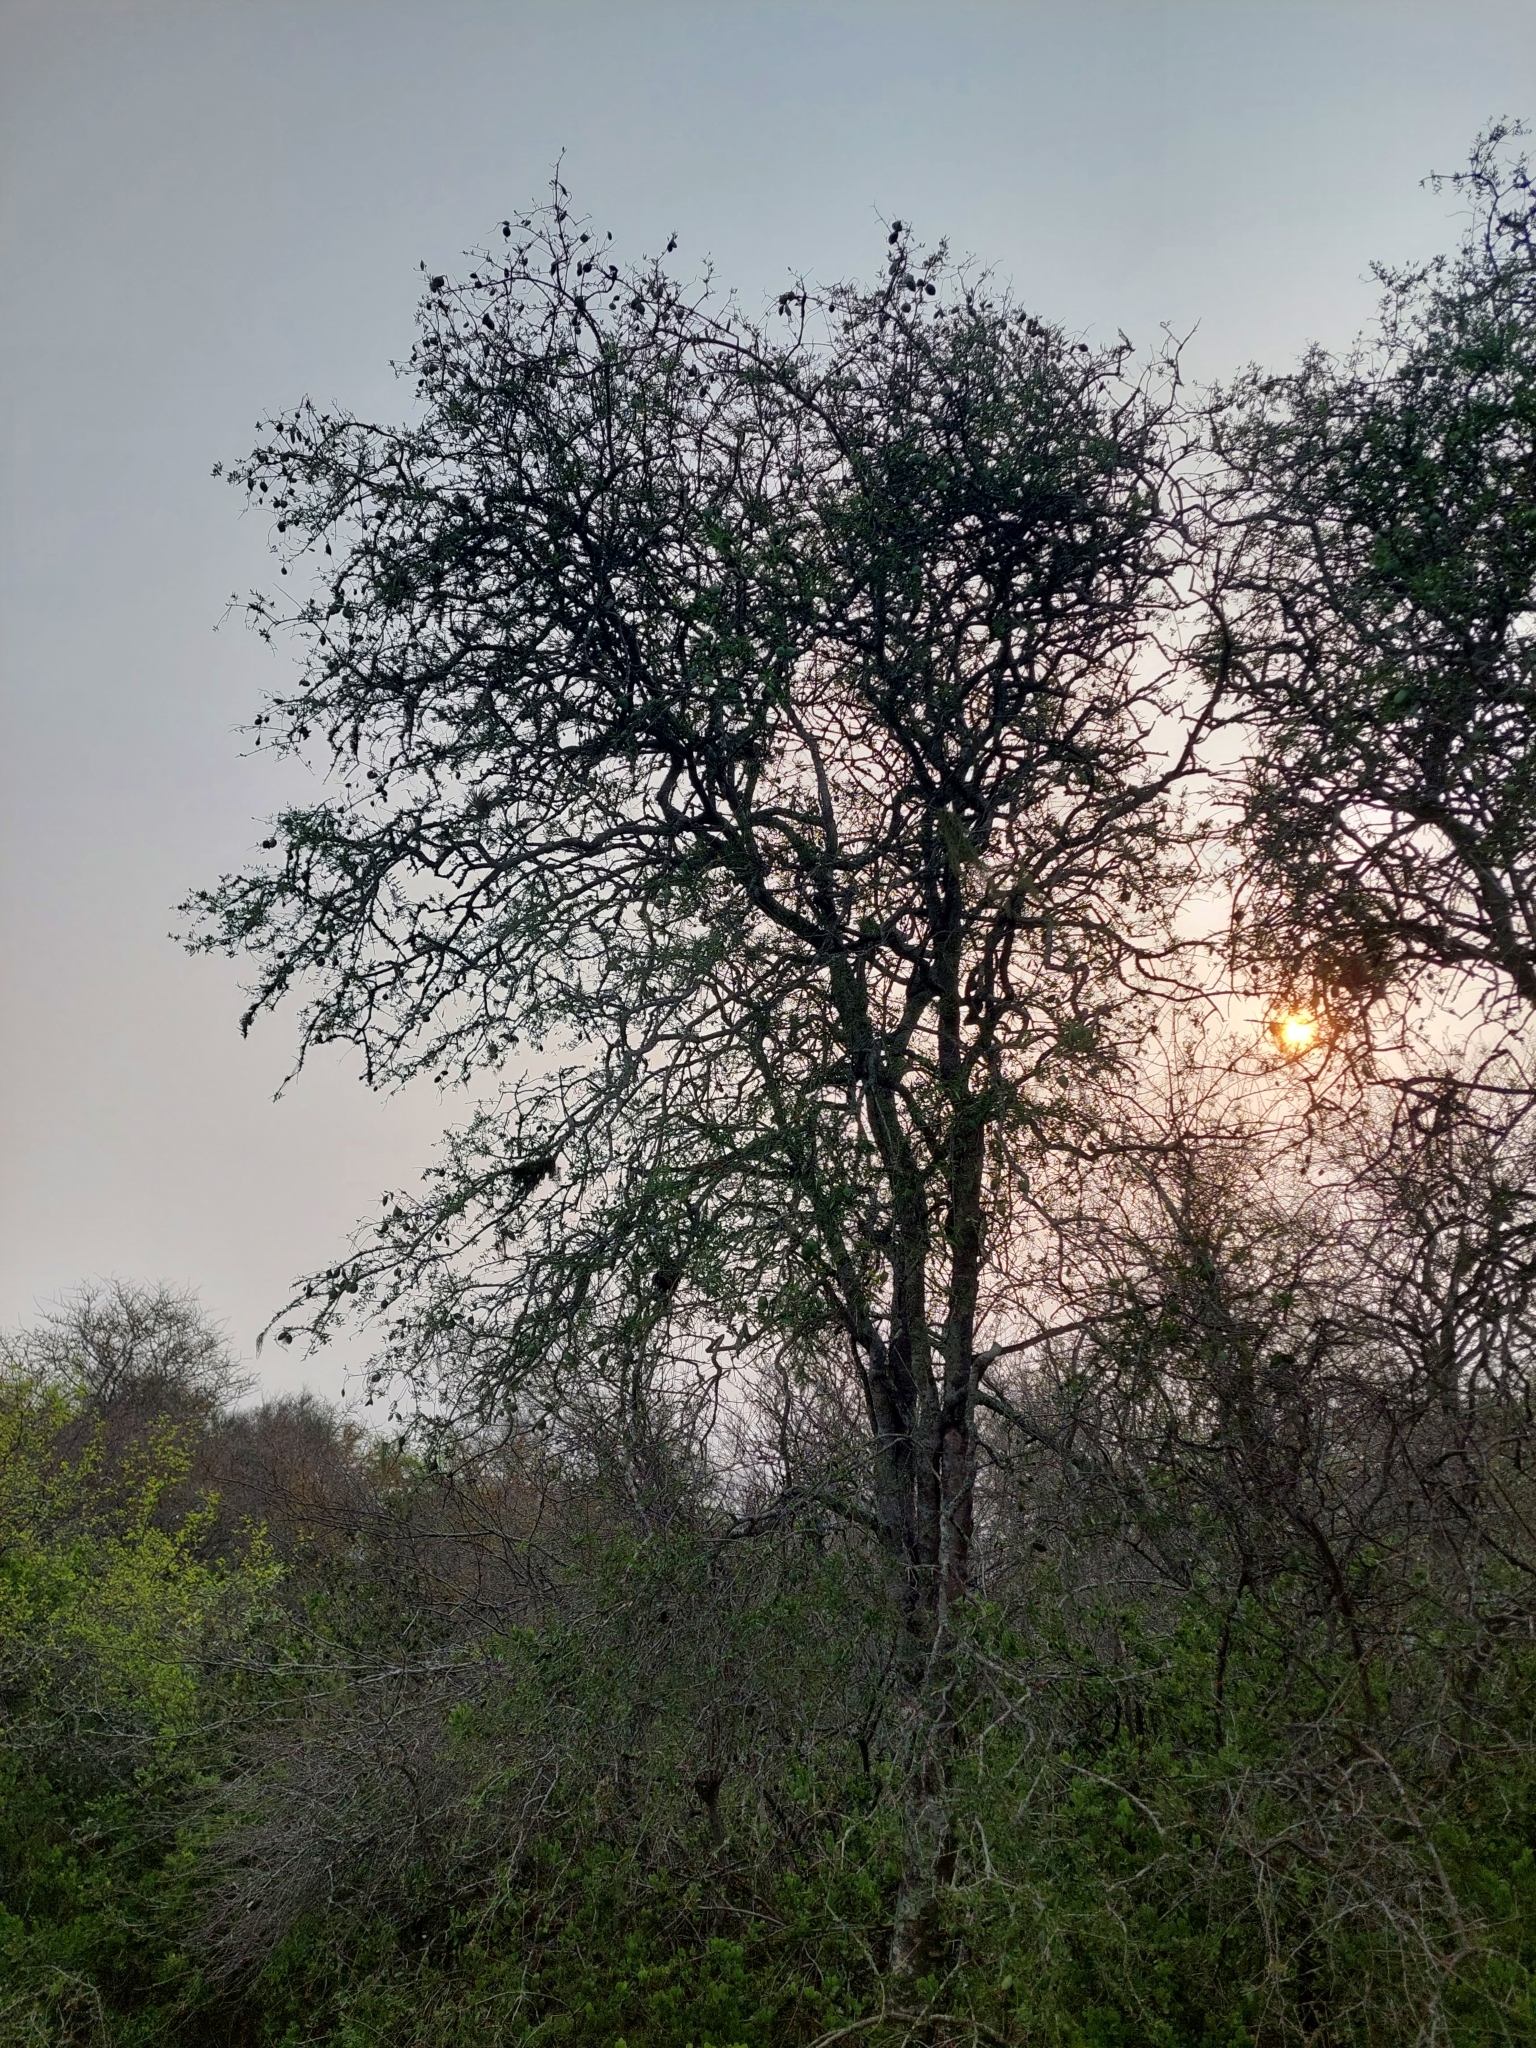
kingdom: Plantae
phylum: Tracheophyta
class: Magnoliopsida
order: Gentianales
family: Apocynaceae
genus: Aspidosperma
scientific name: Aspidosperma triternatum
